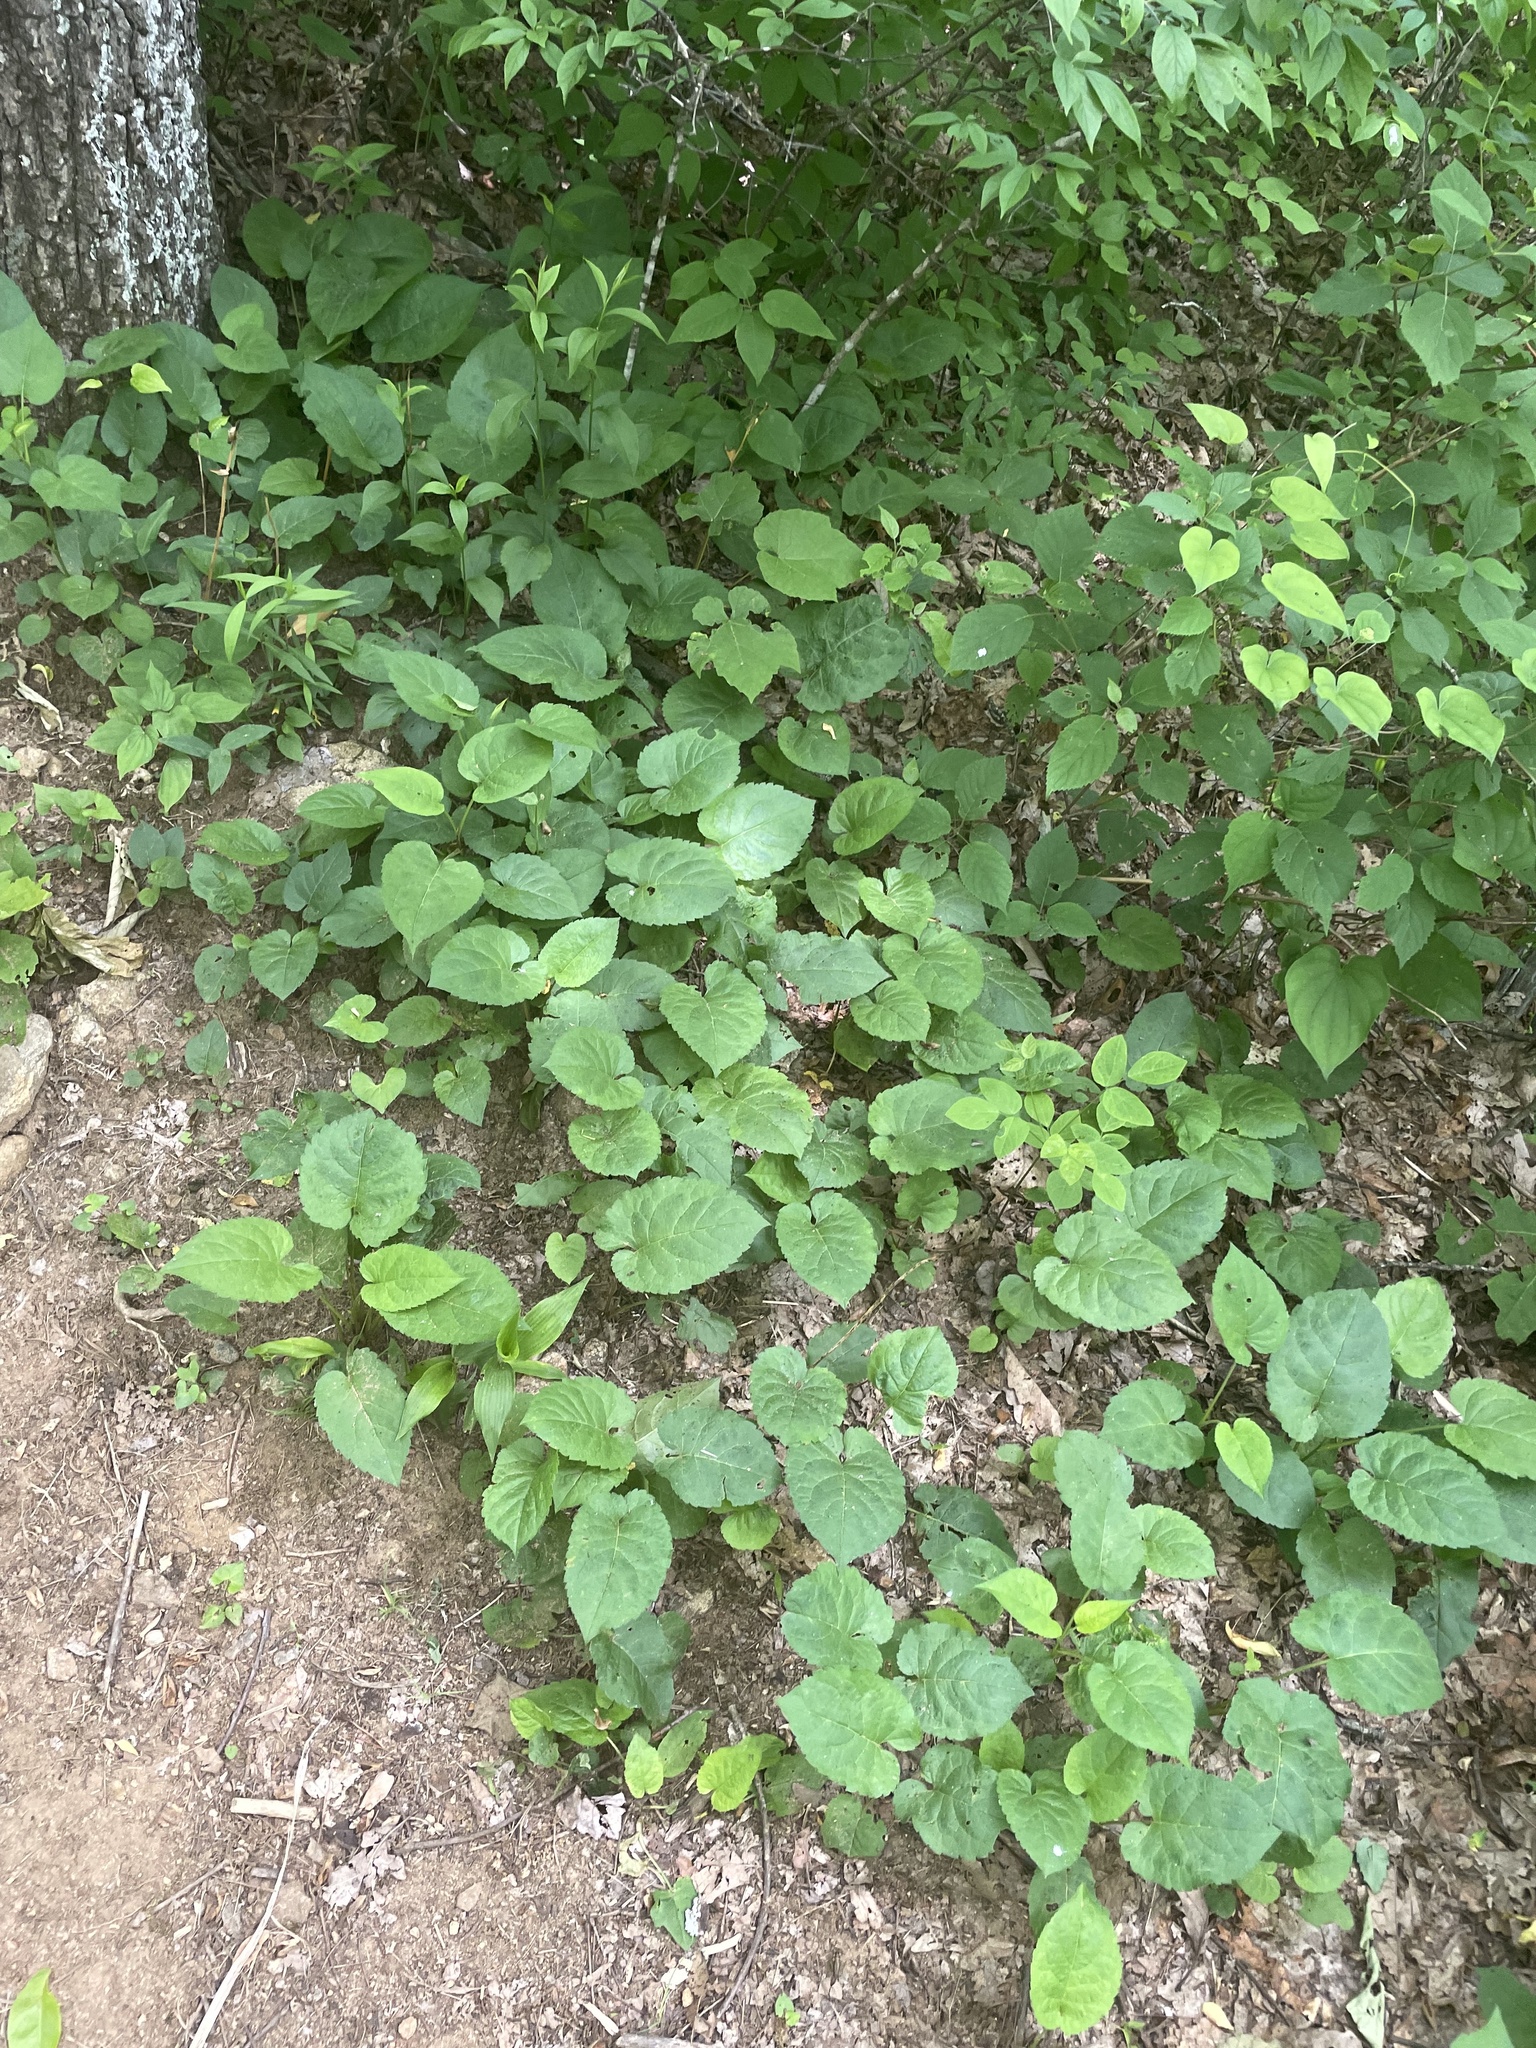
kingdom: Plantae
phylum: Tracheophyta
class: Magnoliopsida
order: Asterales
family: Asteraceae
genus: Eurybia
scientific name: Eurybia macrophylla
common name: Big-leaved aster
